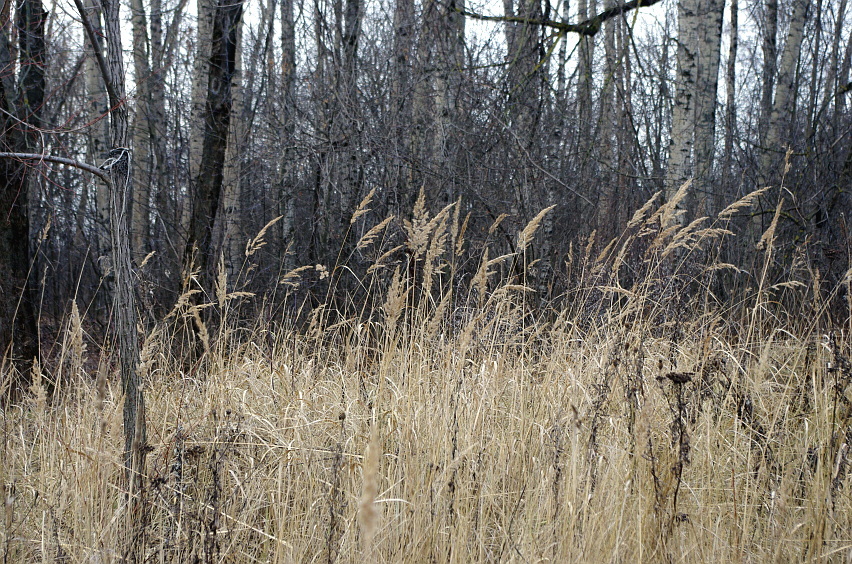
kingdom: Plantae
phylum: Tracheophyta
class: Liliopsida
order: Poales
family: Poaceae
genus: Calamagrostis
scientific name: Calamagrostis epigejos
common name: Wood small-reed
